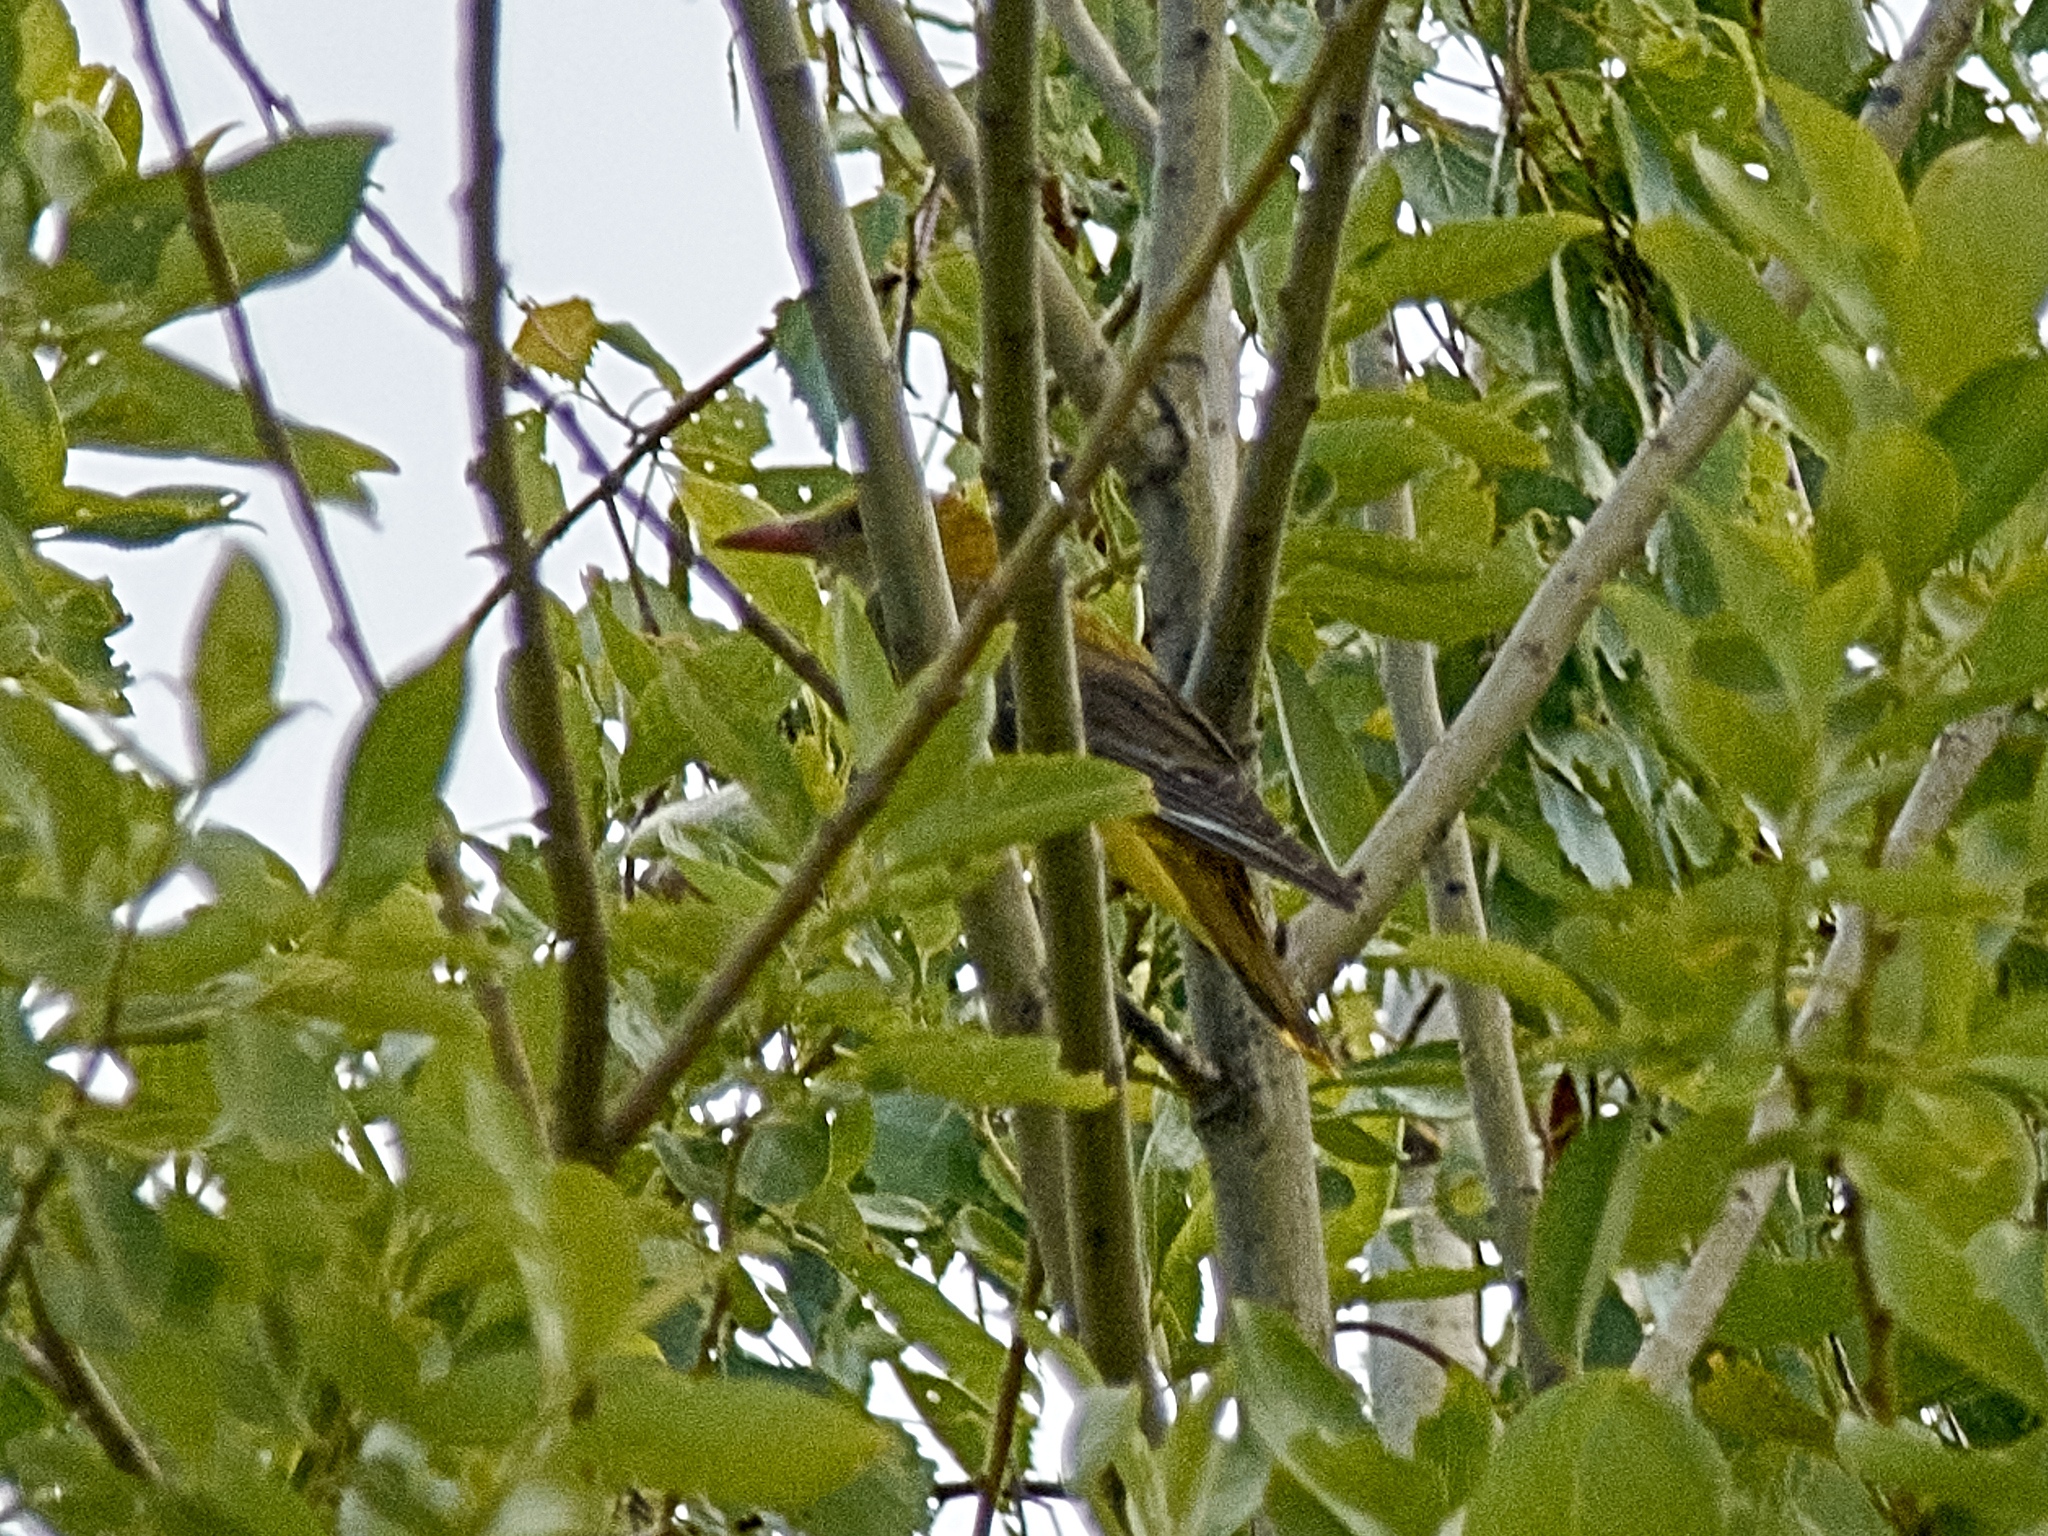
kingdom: Animalia
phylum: Chordata
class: Aves
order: Passeriformes
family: Oriolidae
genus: Oriolus
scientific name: Oriolus oriolus
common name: Eurasian golden oriole
